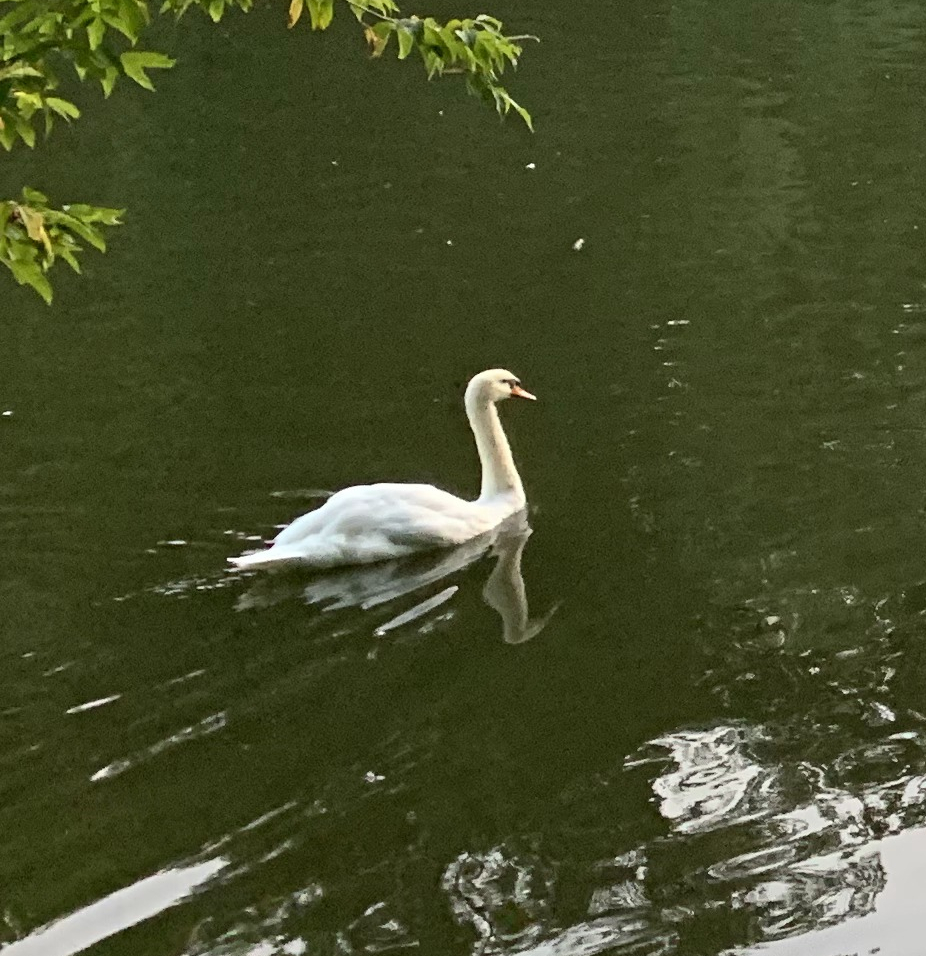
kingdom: Animalia
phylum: Chordata
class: Aves
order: Anseriformes
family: Anatidae
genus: Cygnus
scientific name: Cygnus olor
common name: Mute swan
